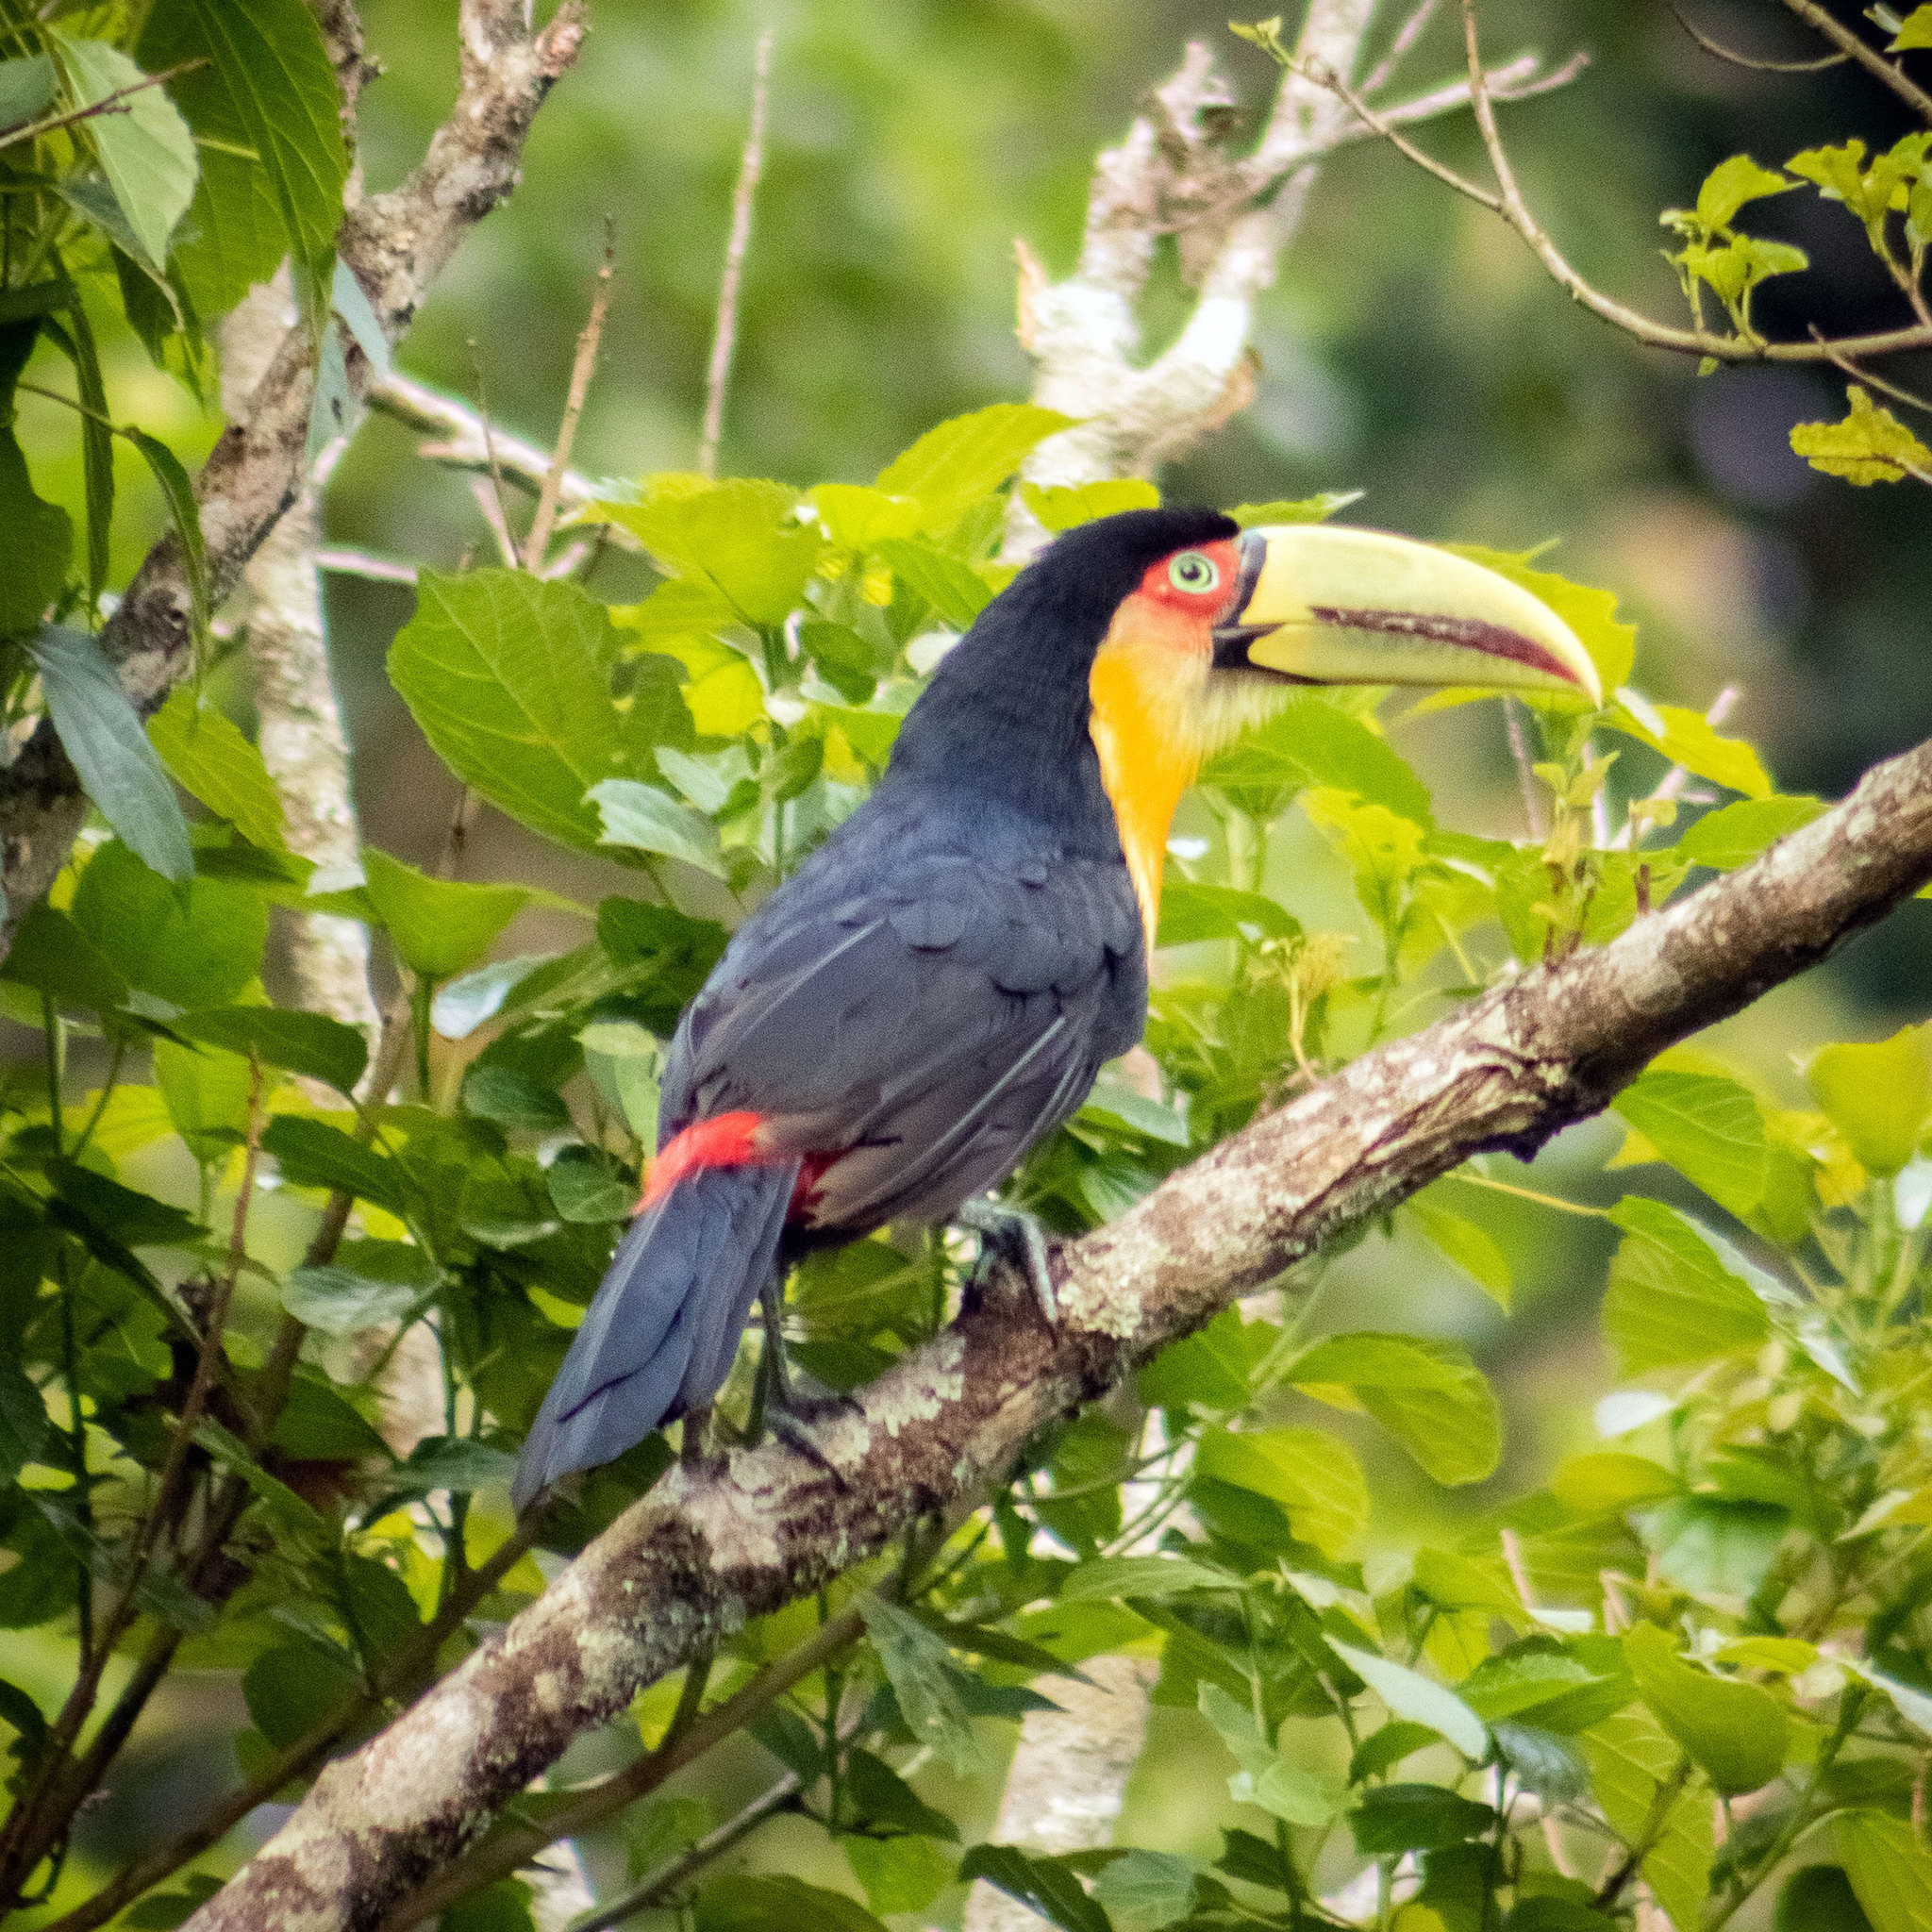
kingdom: Animalia
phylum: Chordata
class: Aves
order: Piciformes
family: Ramphastidae
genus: Ramphastos
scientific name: Ramphastos dicolorus
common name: Green-billed toucan
